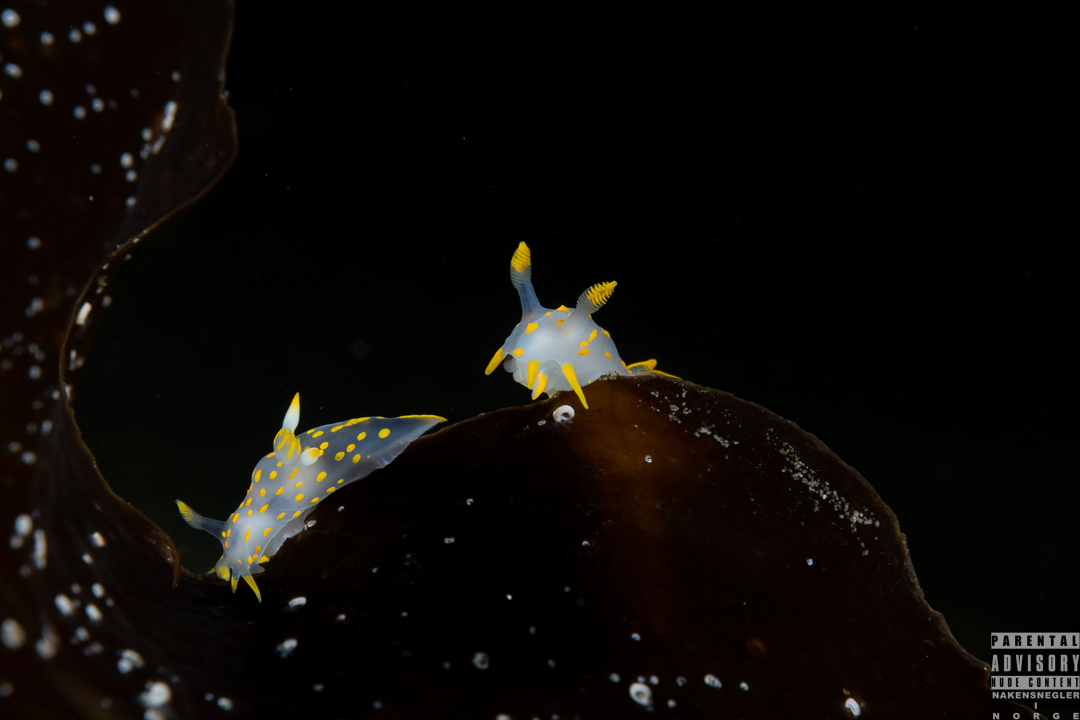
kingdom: Animalia
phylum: Mollusca
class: Gastropoda
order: Nudibranchia
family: Polyceridae
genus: Polycera
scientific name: Polycera quadrilineata
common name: Four-striped polycera
